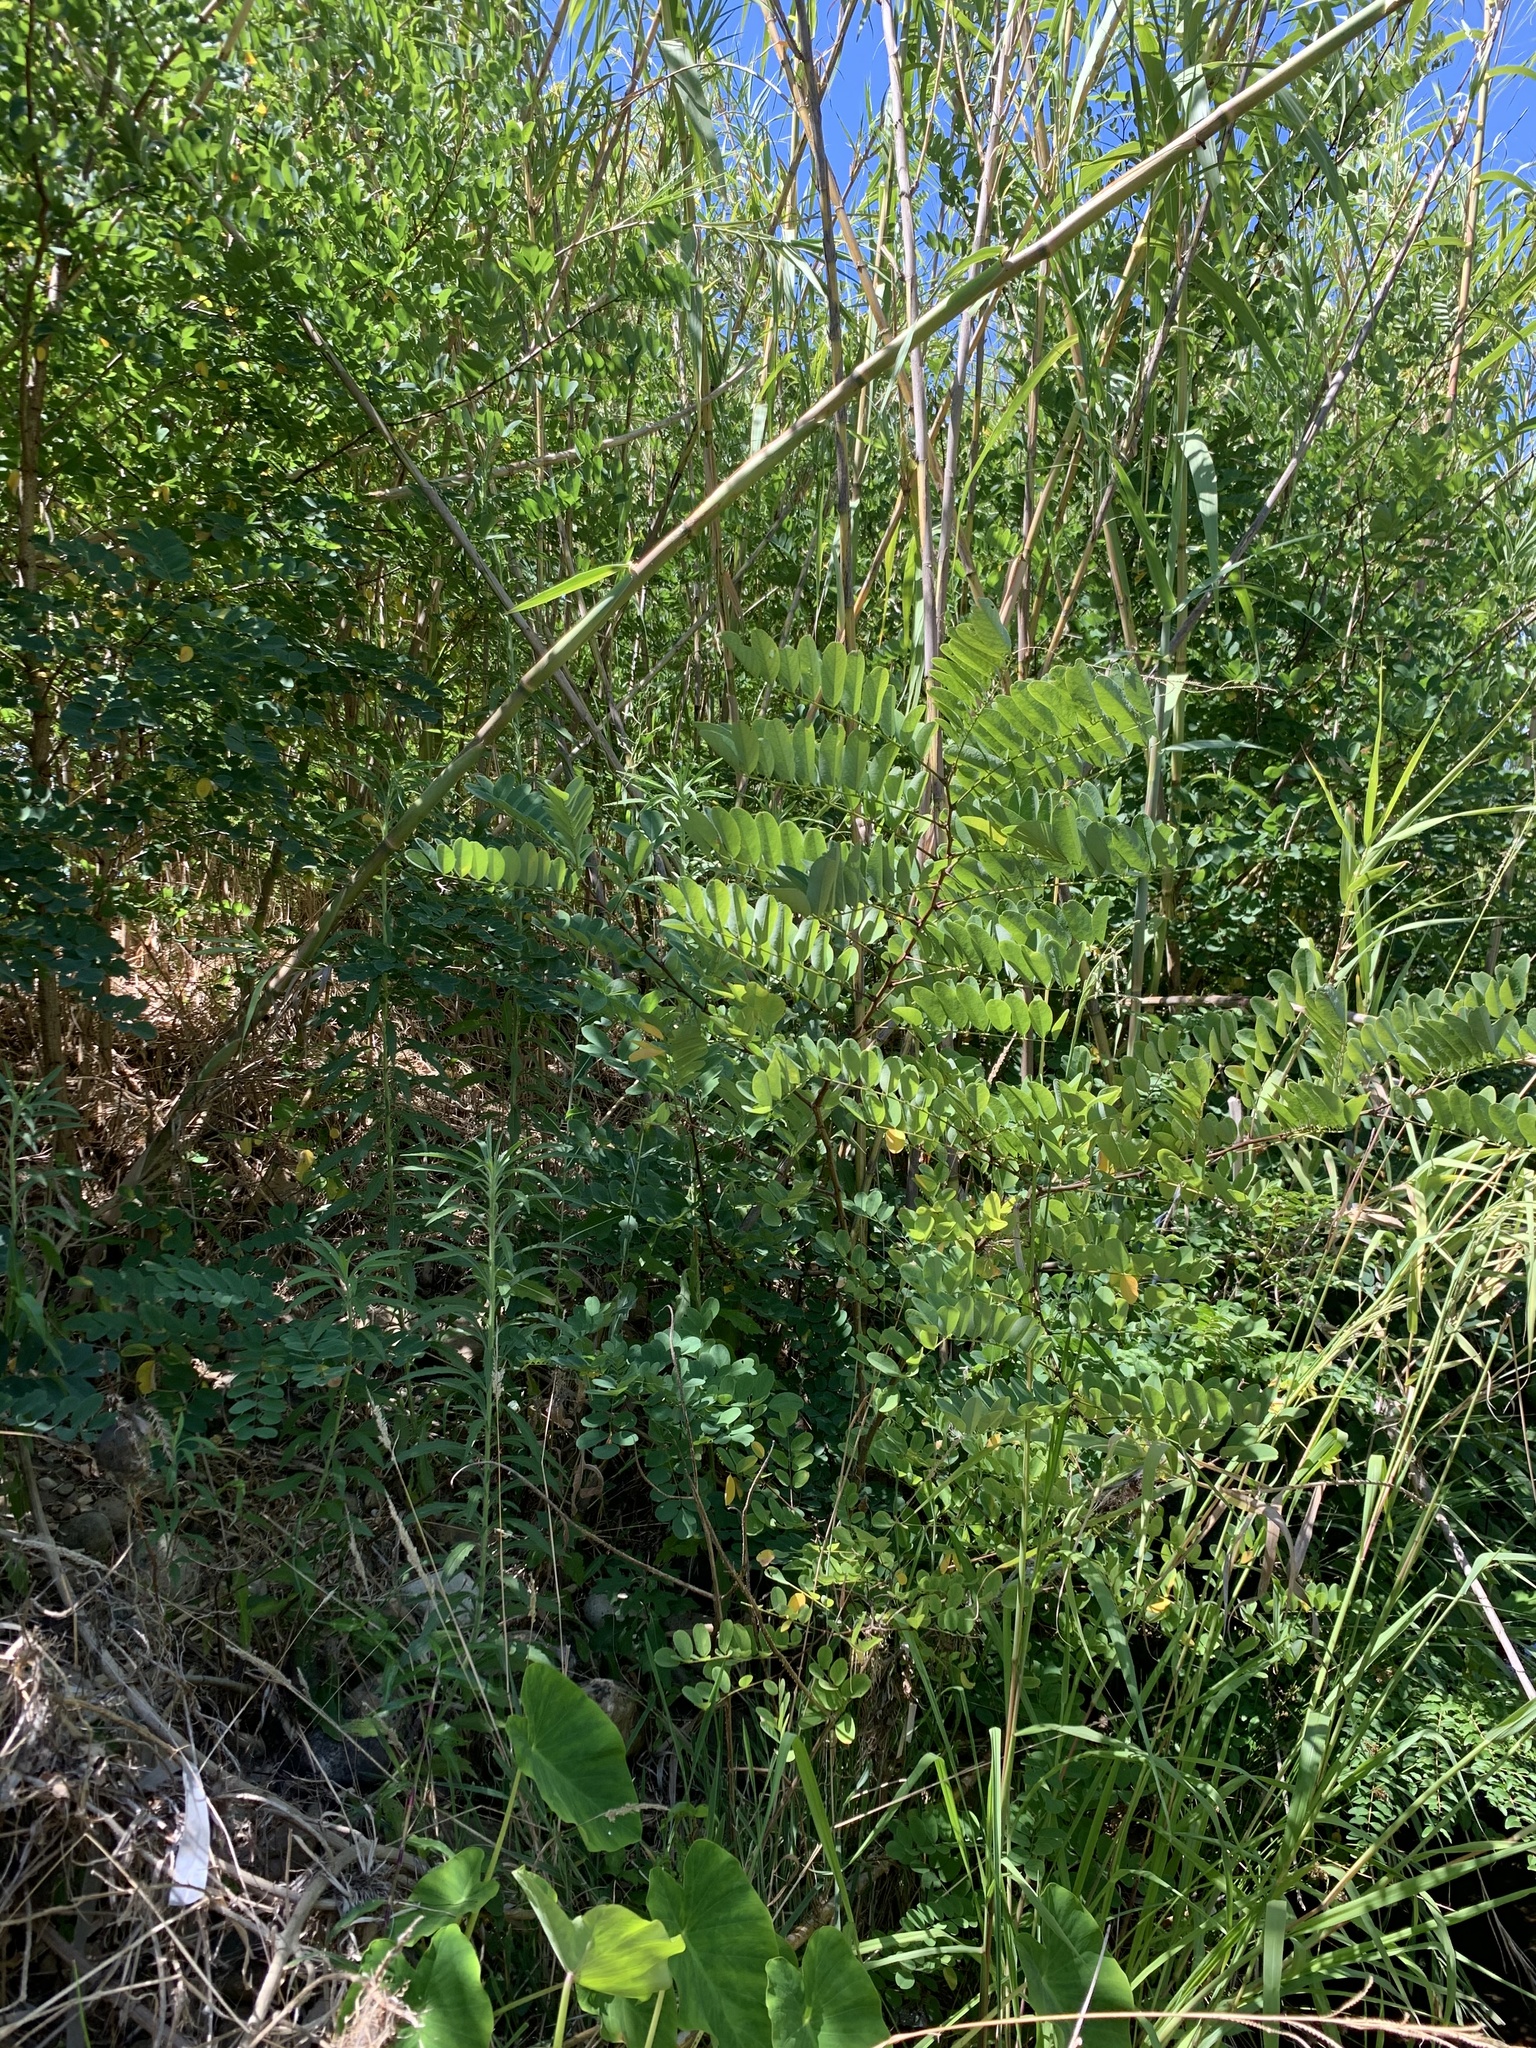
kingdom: Plantae
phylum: Tracheophyta
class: Magnoliopsida
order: Fabales
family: Fabaceae
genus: Robinia
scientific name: Robinia pseudoacacia
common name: Black locust
